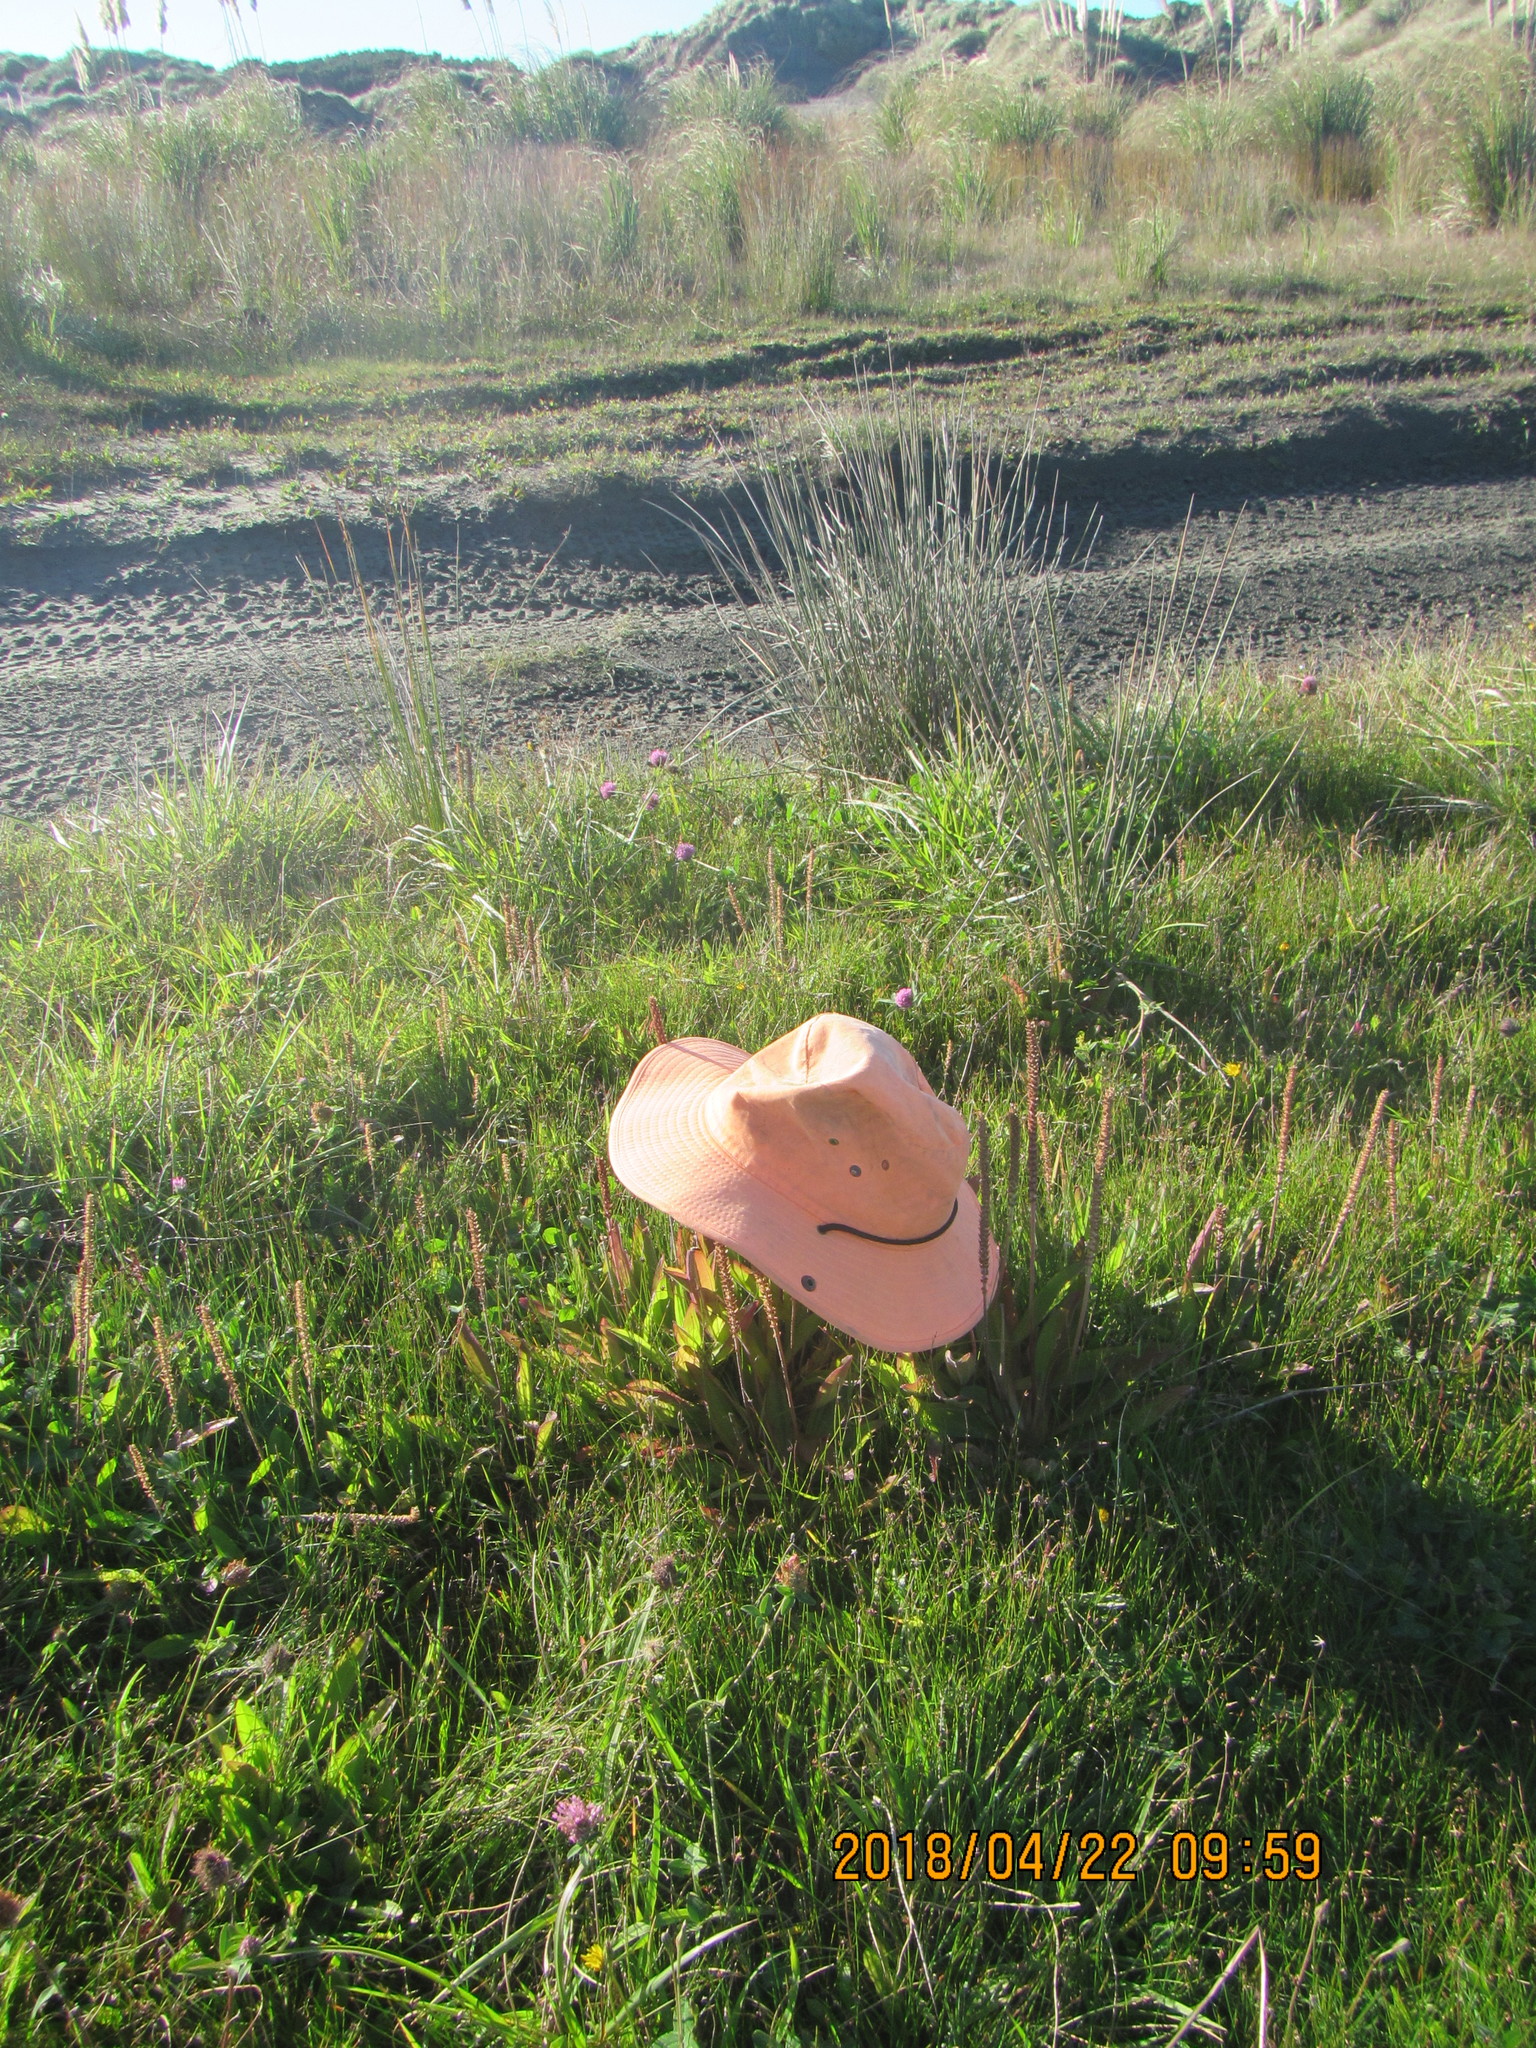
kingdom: Plantae
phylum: Tracheophyta
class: Magnoliopsida
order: Lamiales
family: Plantaginaceae
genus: Plantago
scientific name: Plantago australis
